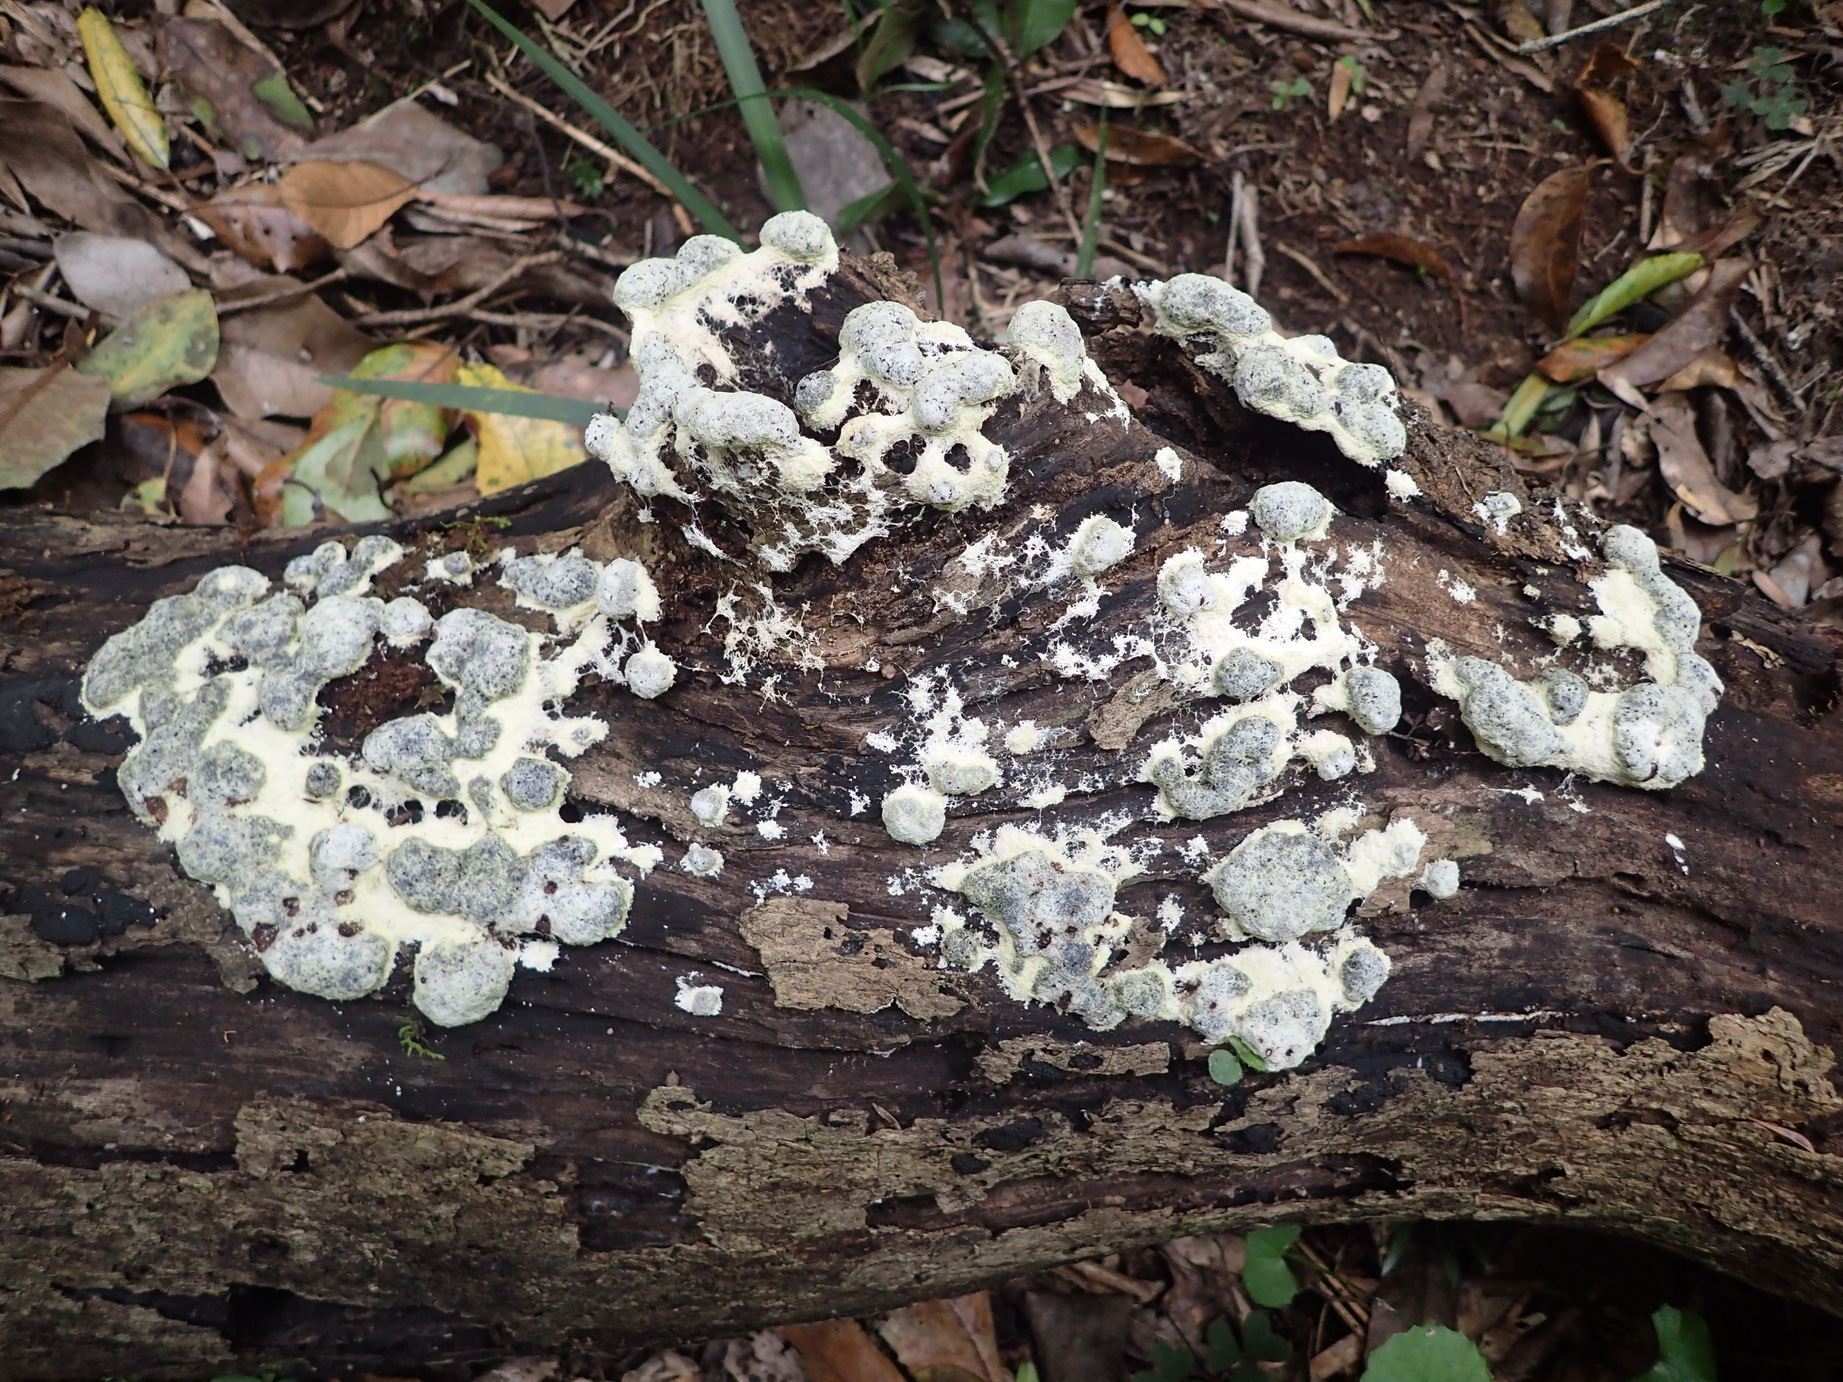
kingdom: Protozoa
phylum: Mycetozoa
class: Myxomycetes
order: Physarales
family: Physaraceae
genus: Fuligo
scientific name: Fuligo septica
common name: Dog vomit slime mold
